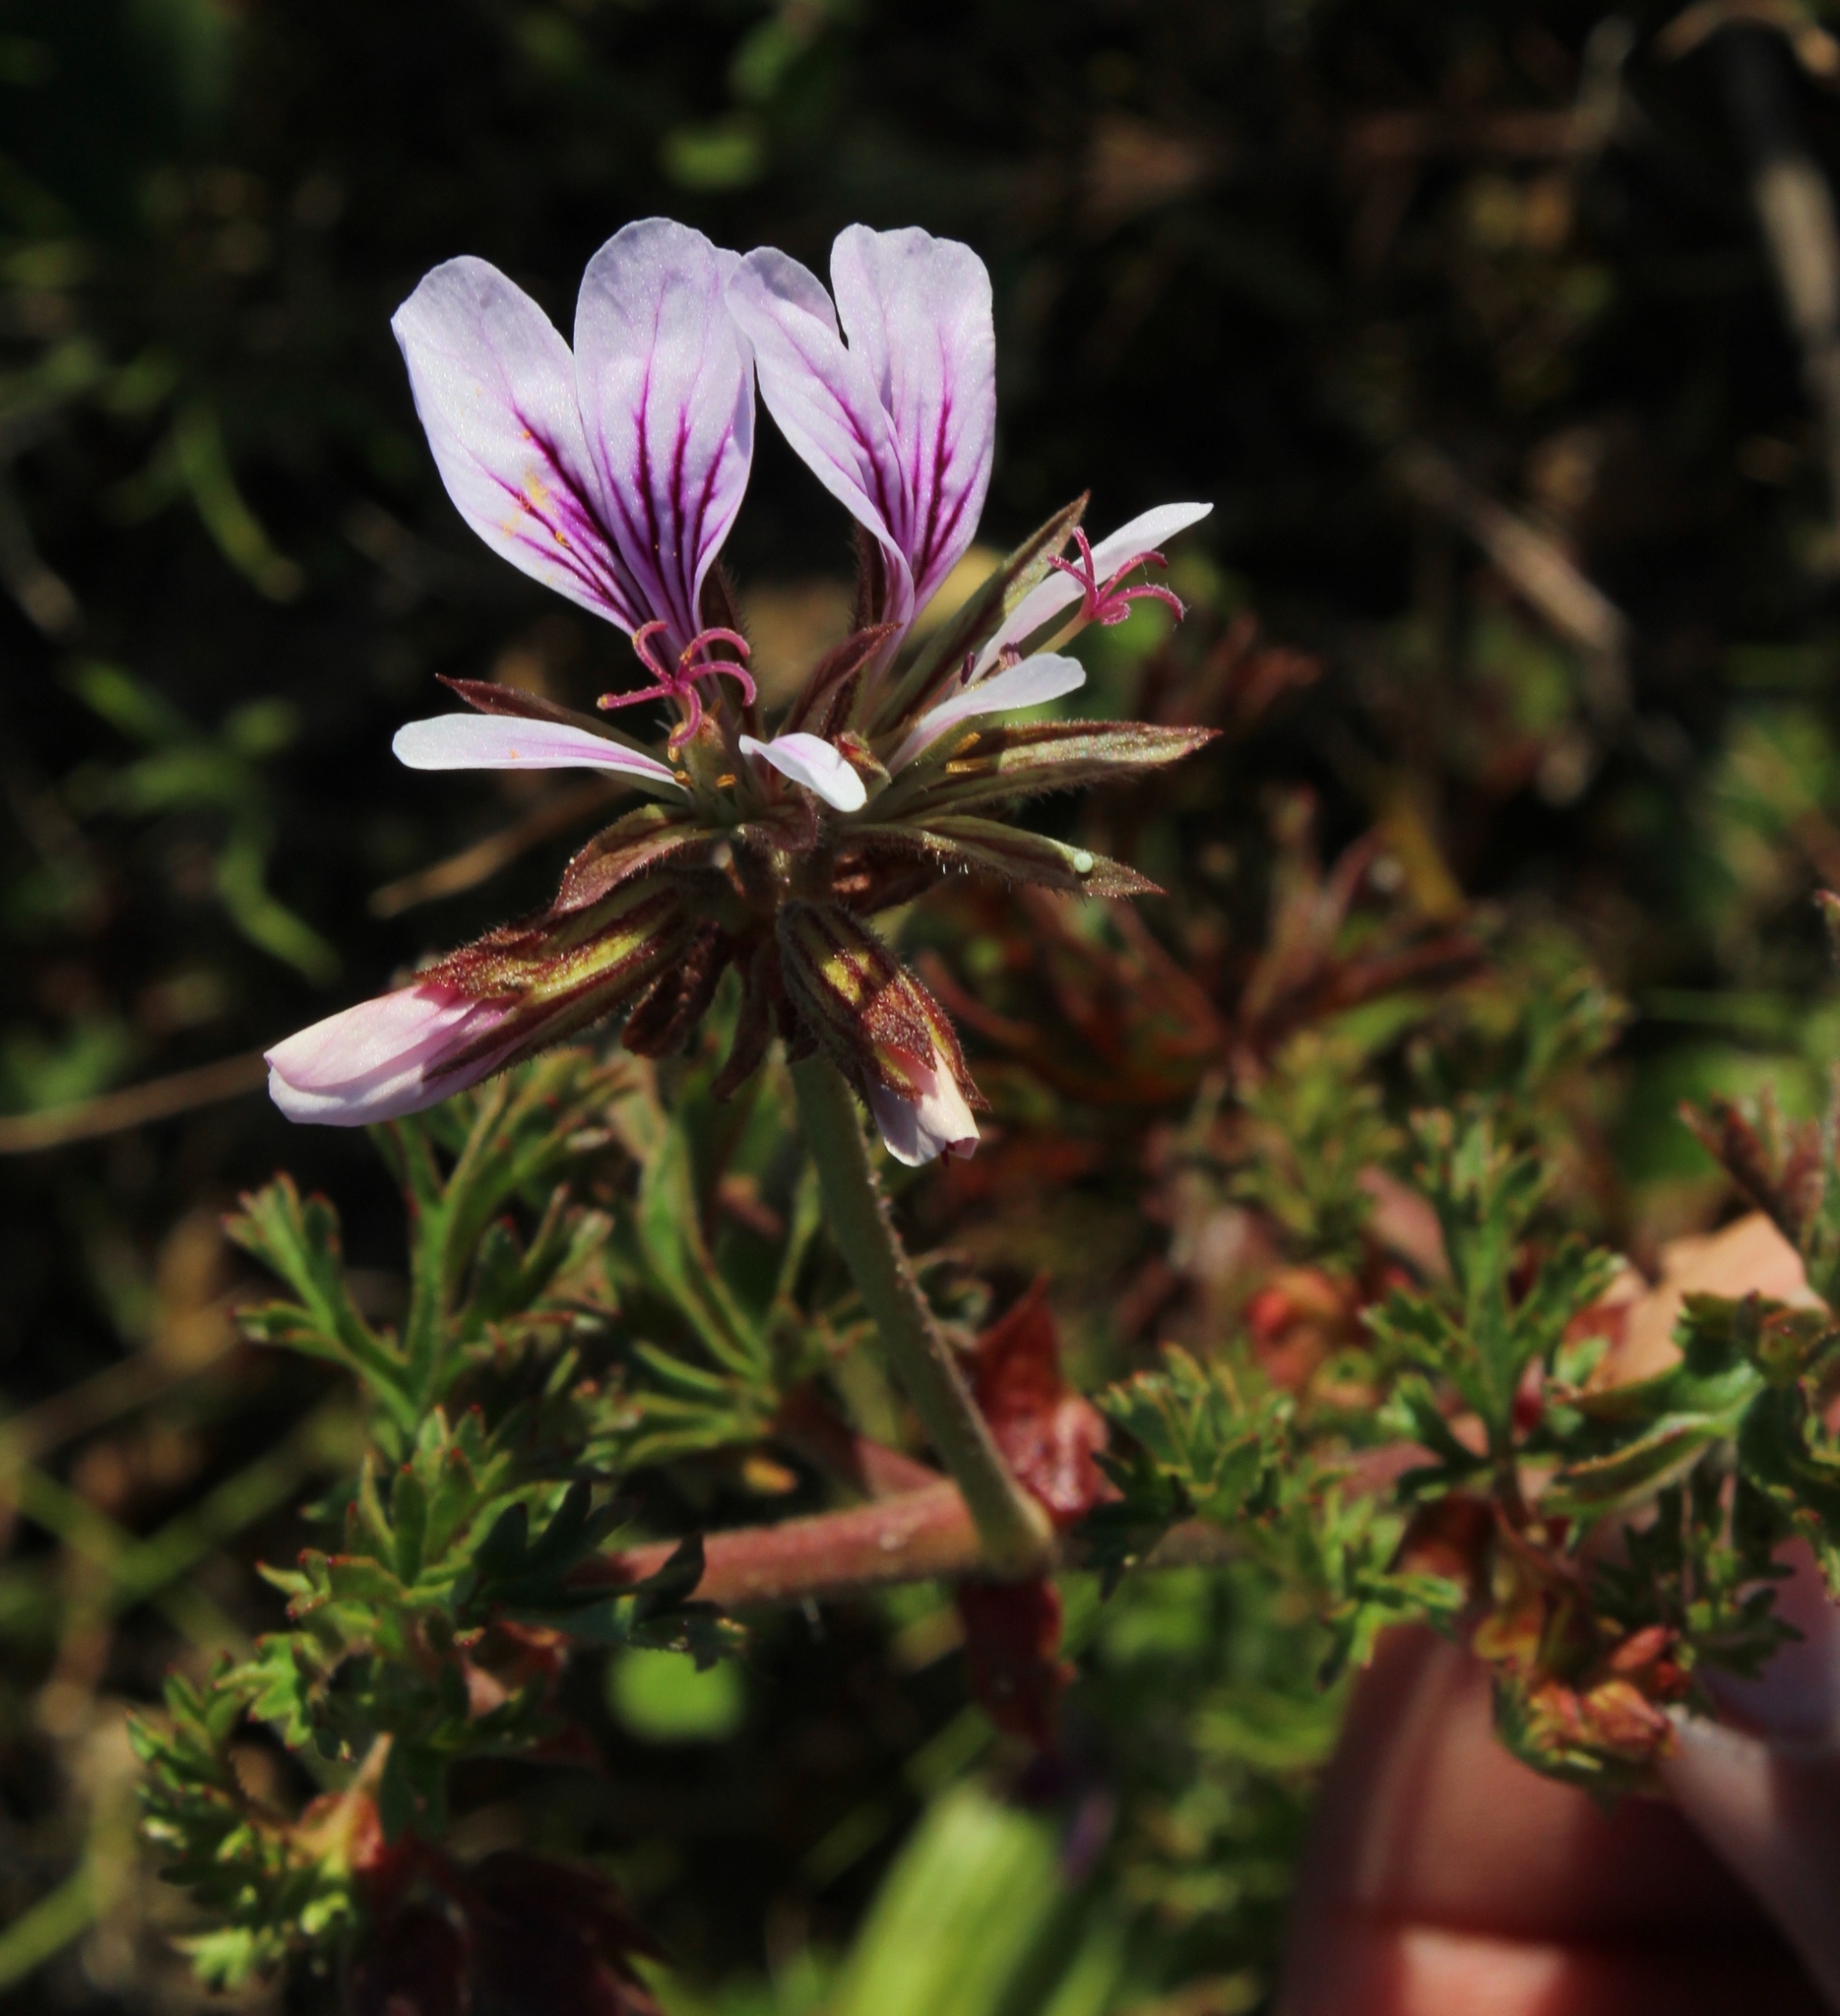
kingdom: Plantae
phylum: Tracheophyta
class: Magnoliopsida
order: Geraniales
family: Geraniaceae
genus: Pelargonium
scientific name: Pelargonium myrrhifolium
